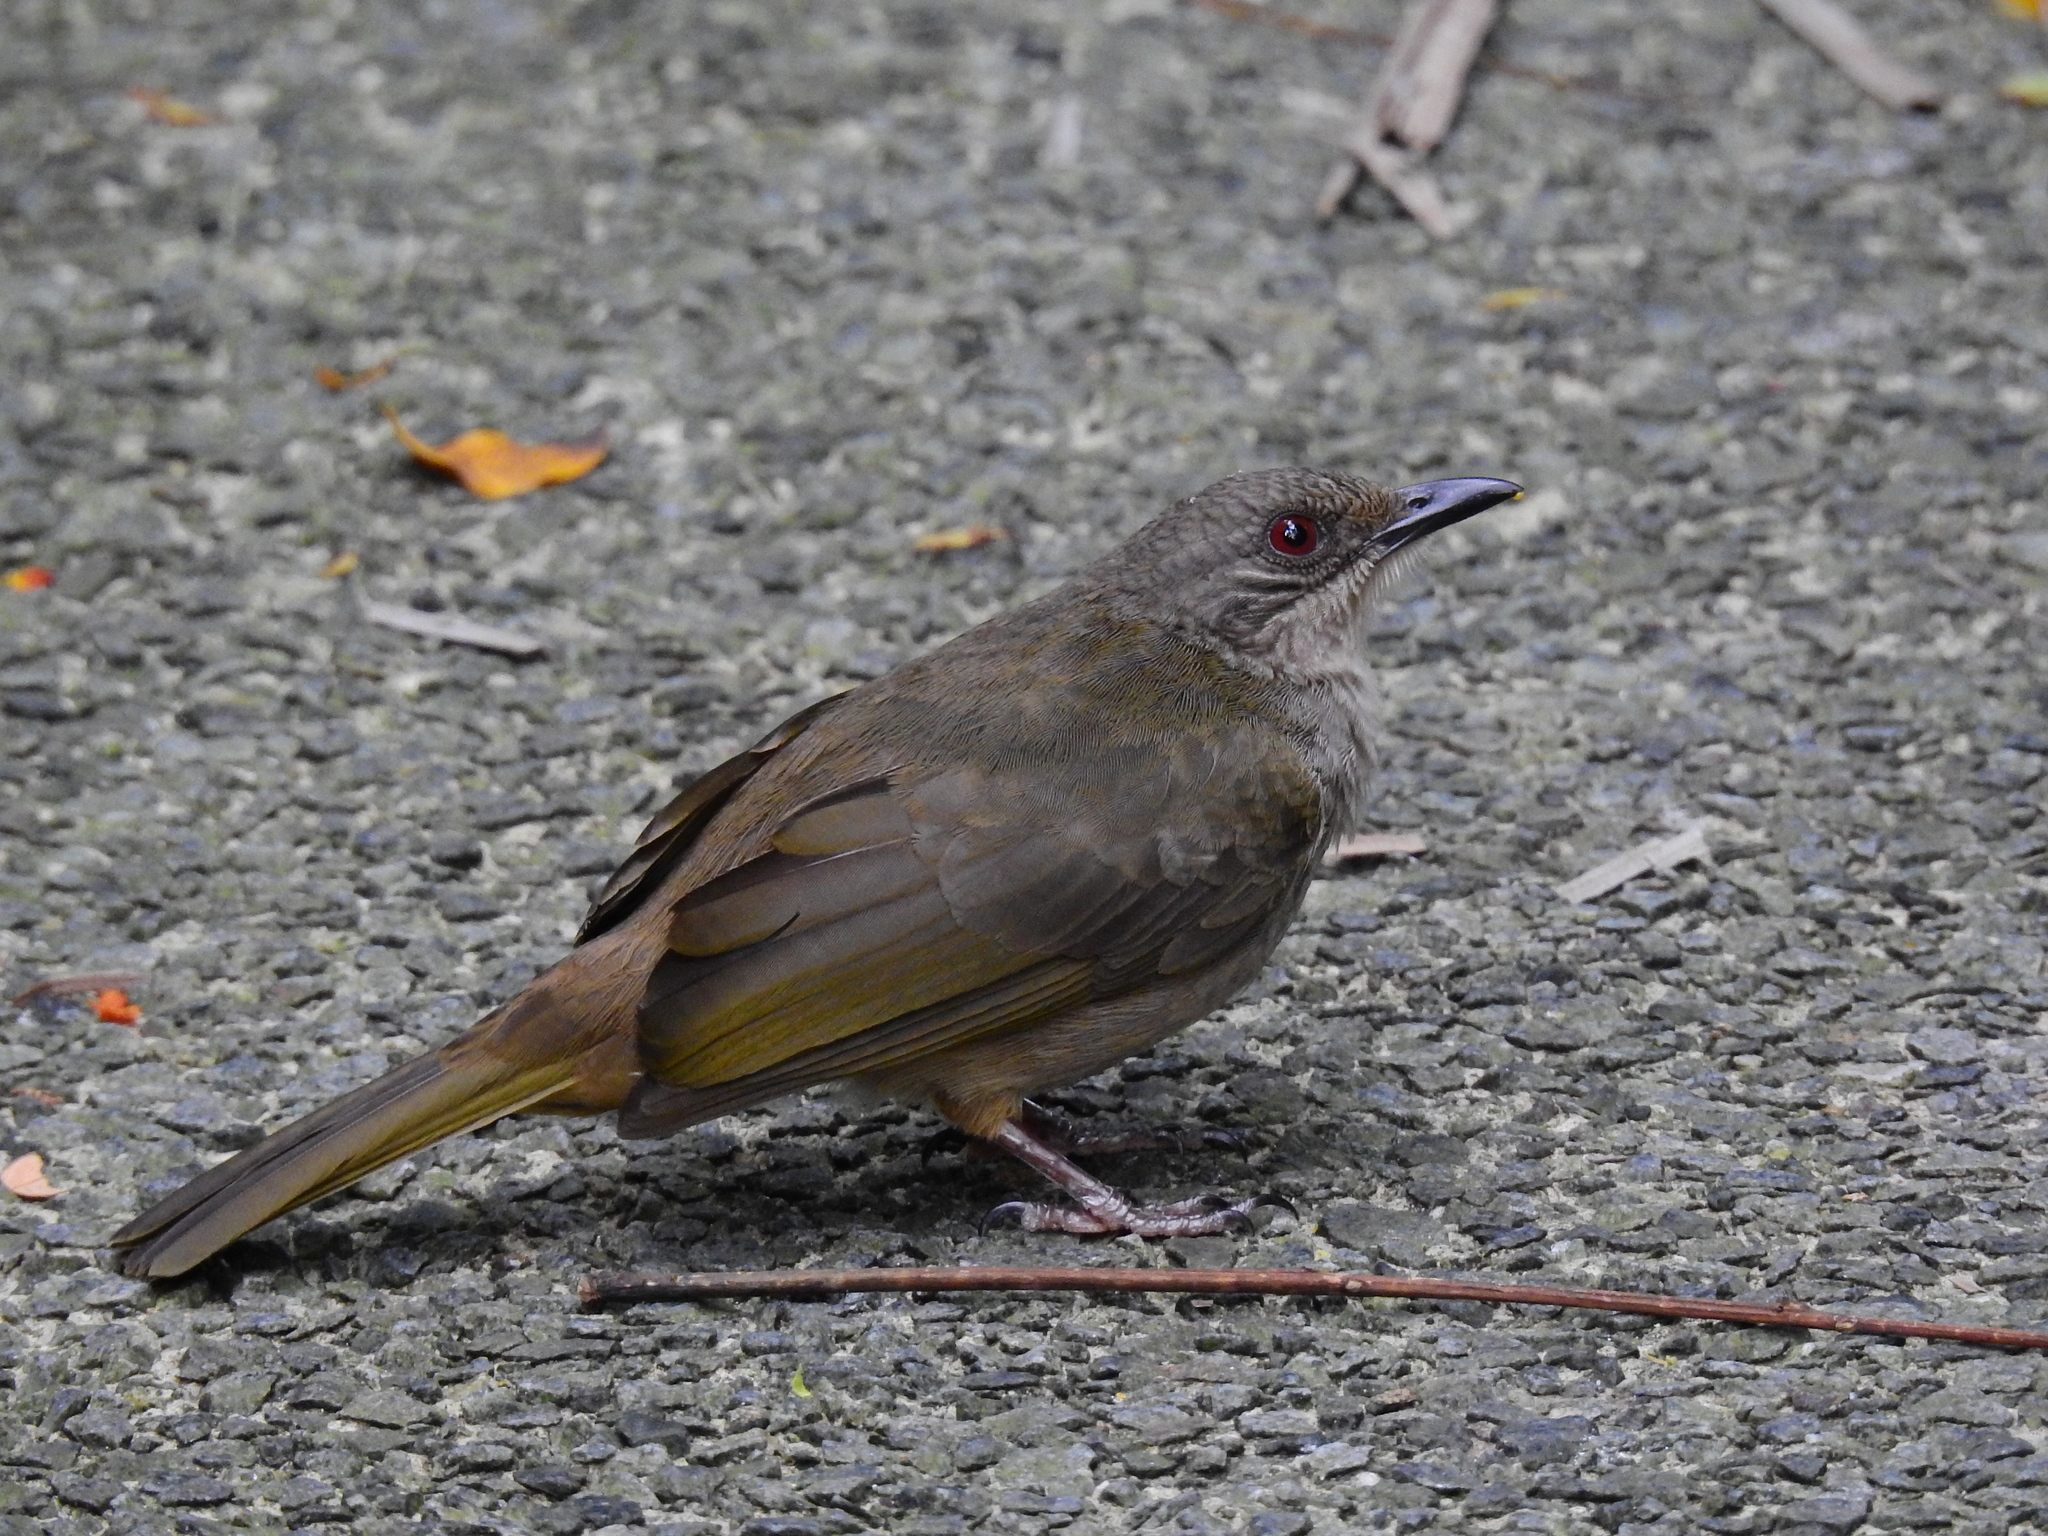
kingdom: Animalia
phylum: Chordata
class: Aves
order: Passeriformes
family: Pycnonotidae
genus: Pycnonotus
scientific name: Pycnonotus plumosus
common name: Olive-winged bulbul
